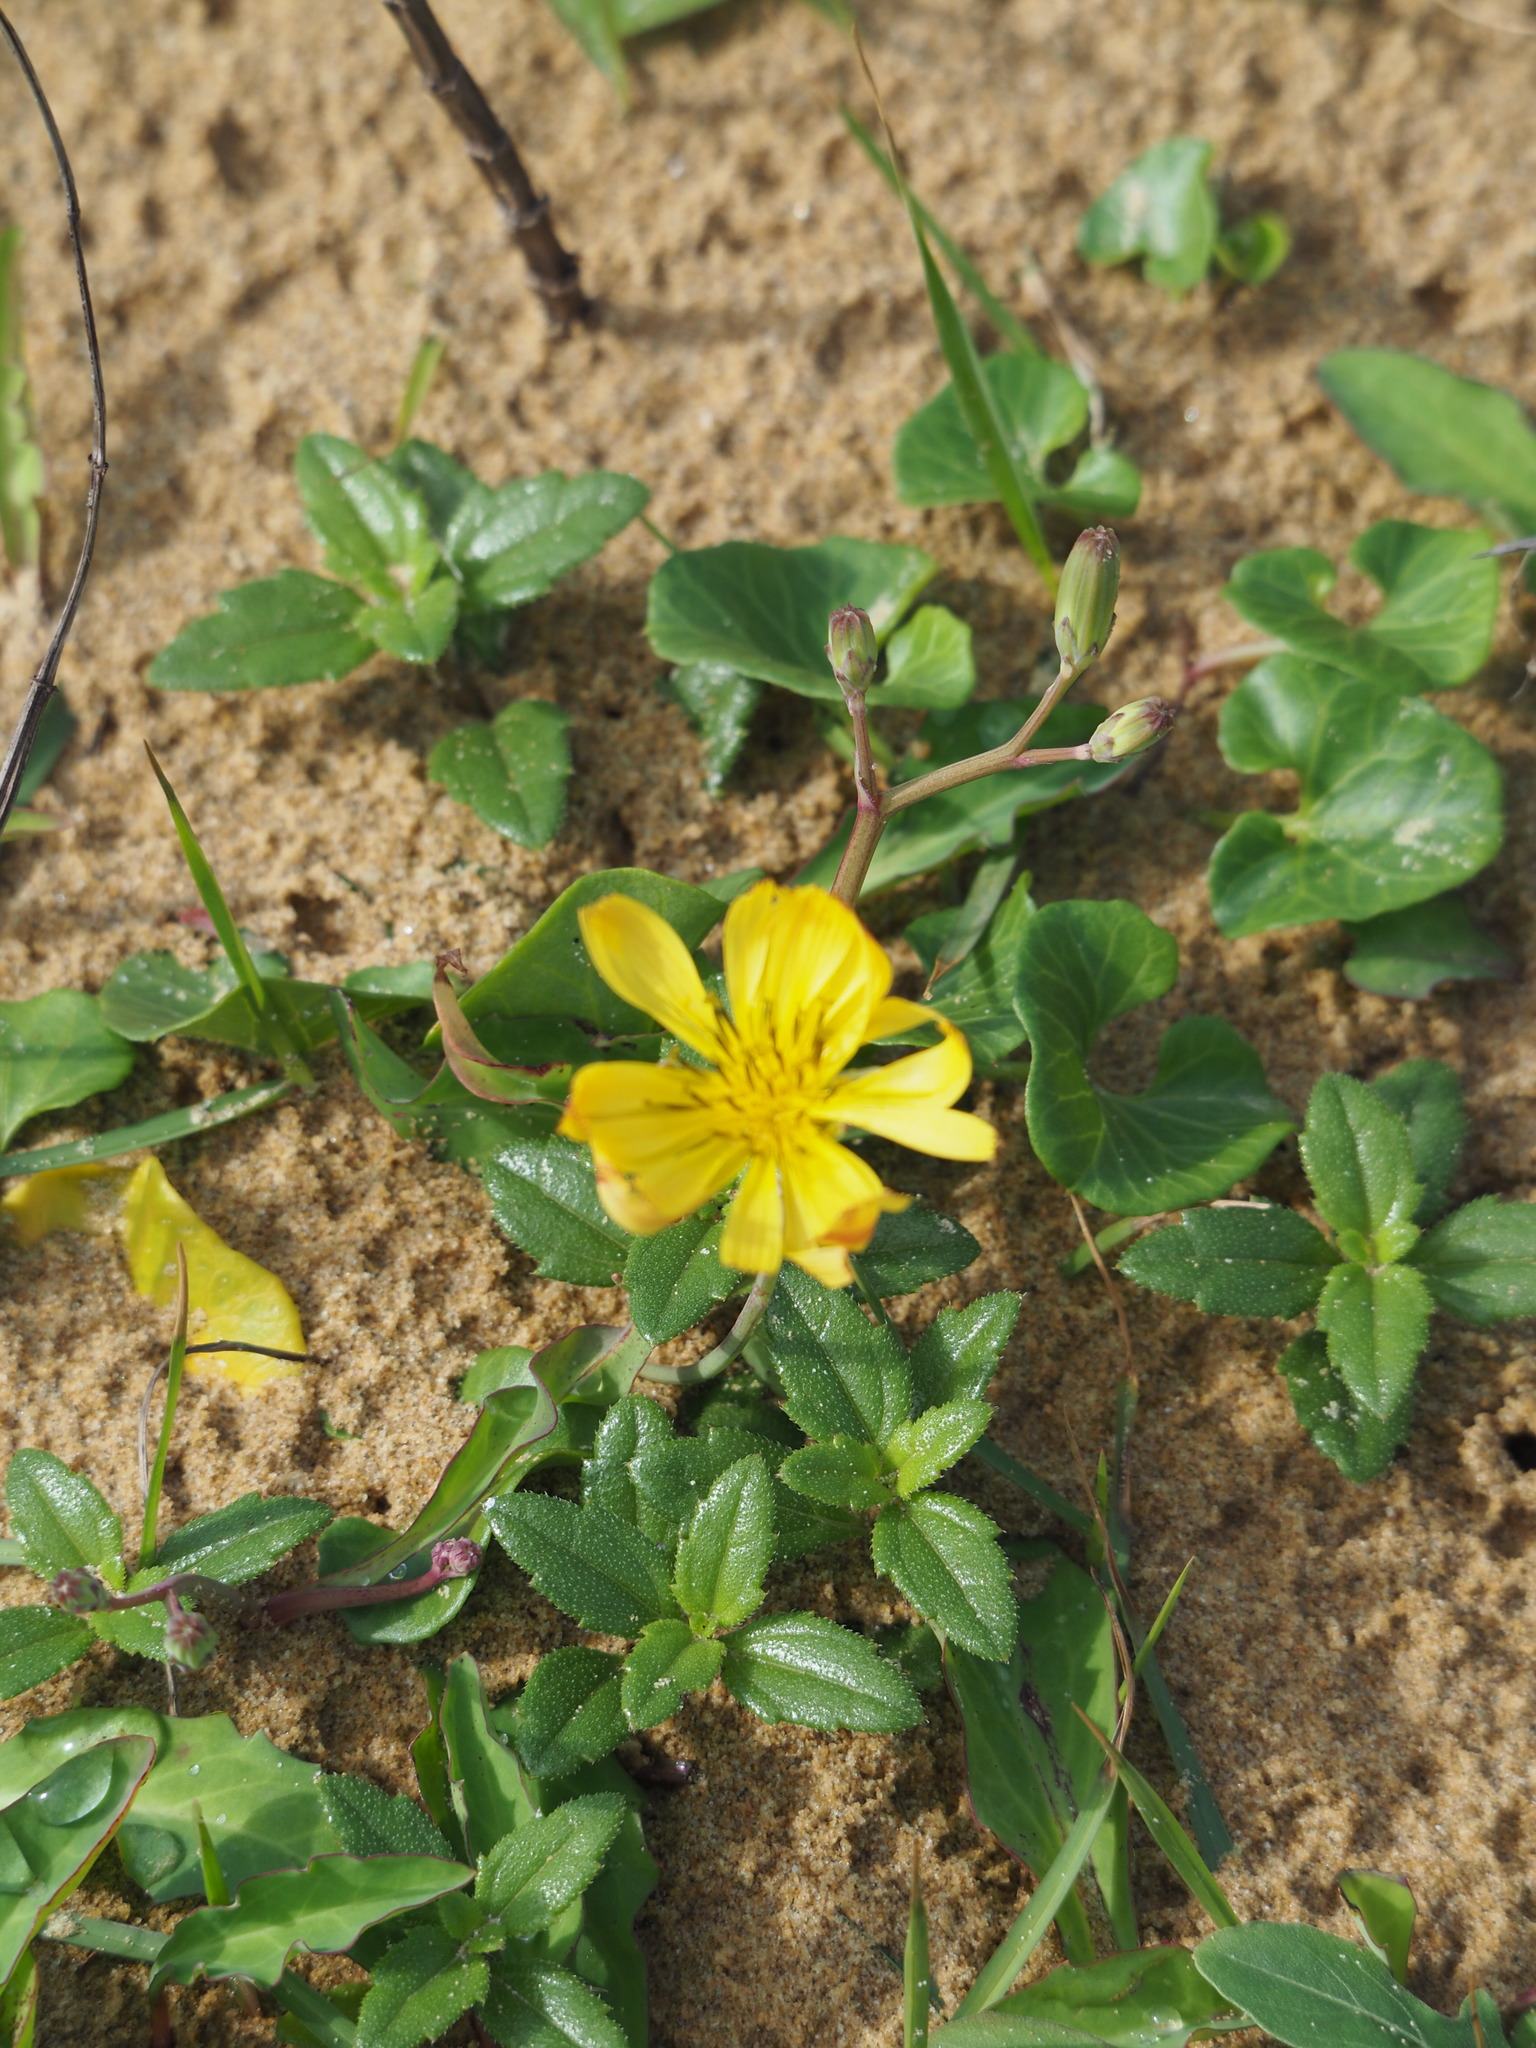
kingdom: Plantae
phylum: Tracheophyta
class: Magnoliopsida
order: Asterales
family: Asteraceae
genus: Ixeris
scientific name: Ixeris japonica
